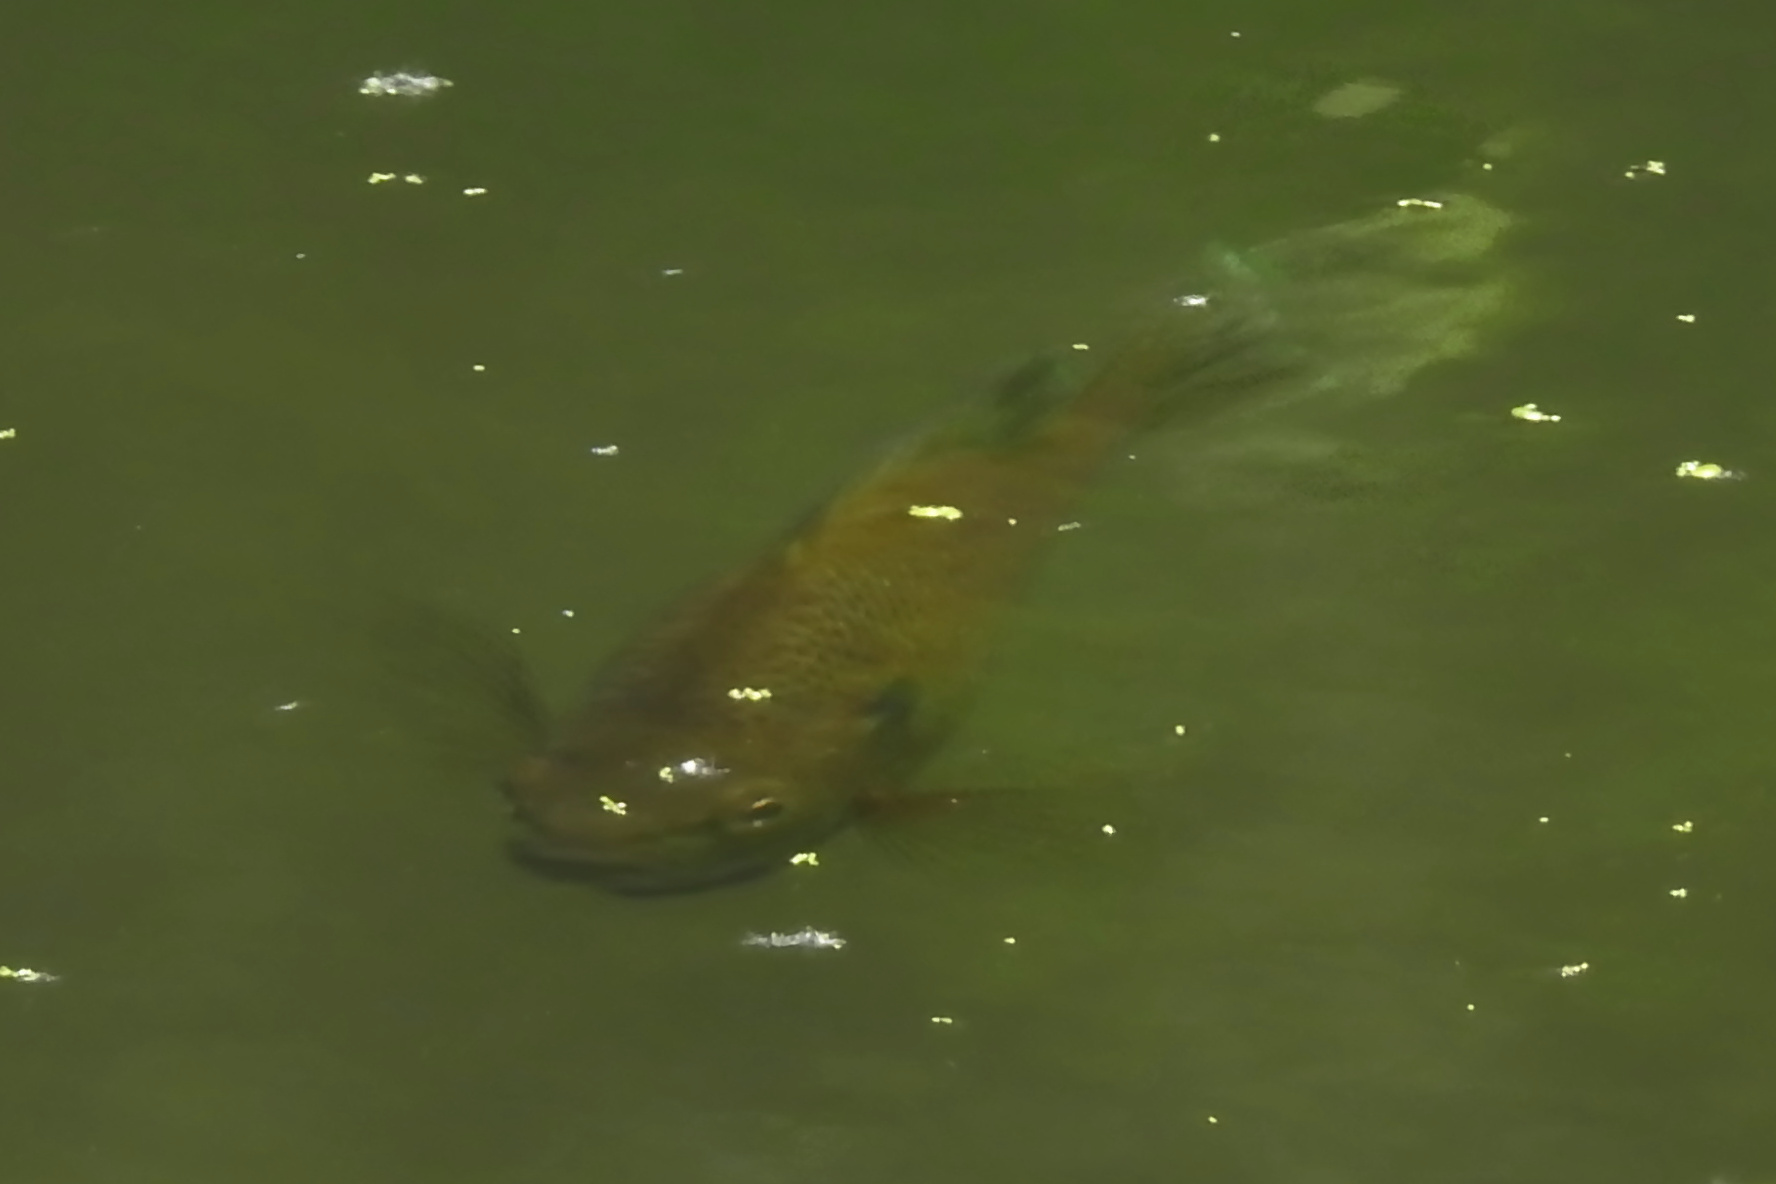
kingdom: Animalia
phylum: Chordata
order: Perciformes
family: Centrarchidae
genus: Lepomis
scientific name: Lepomis macrochirus
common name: Bluegill
